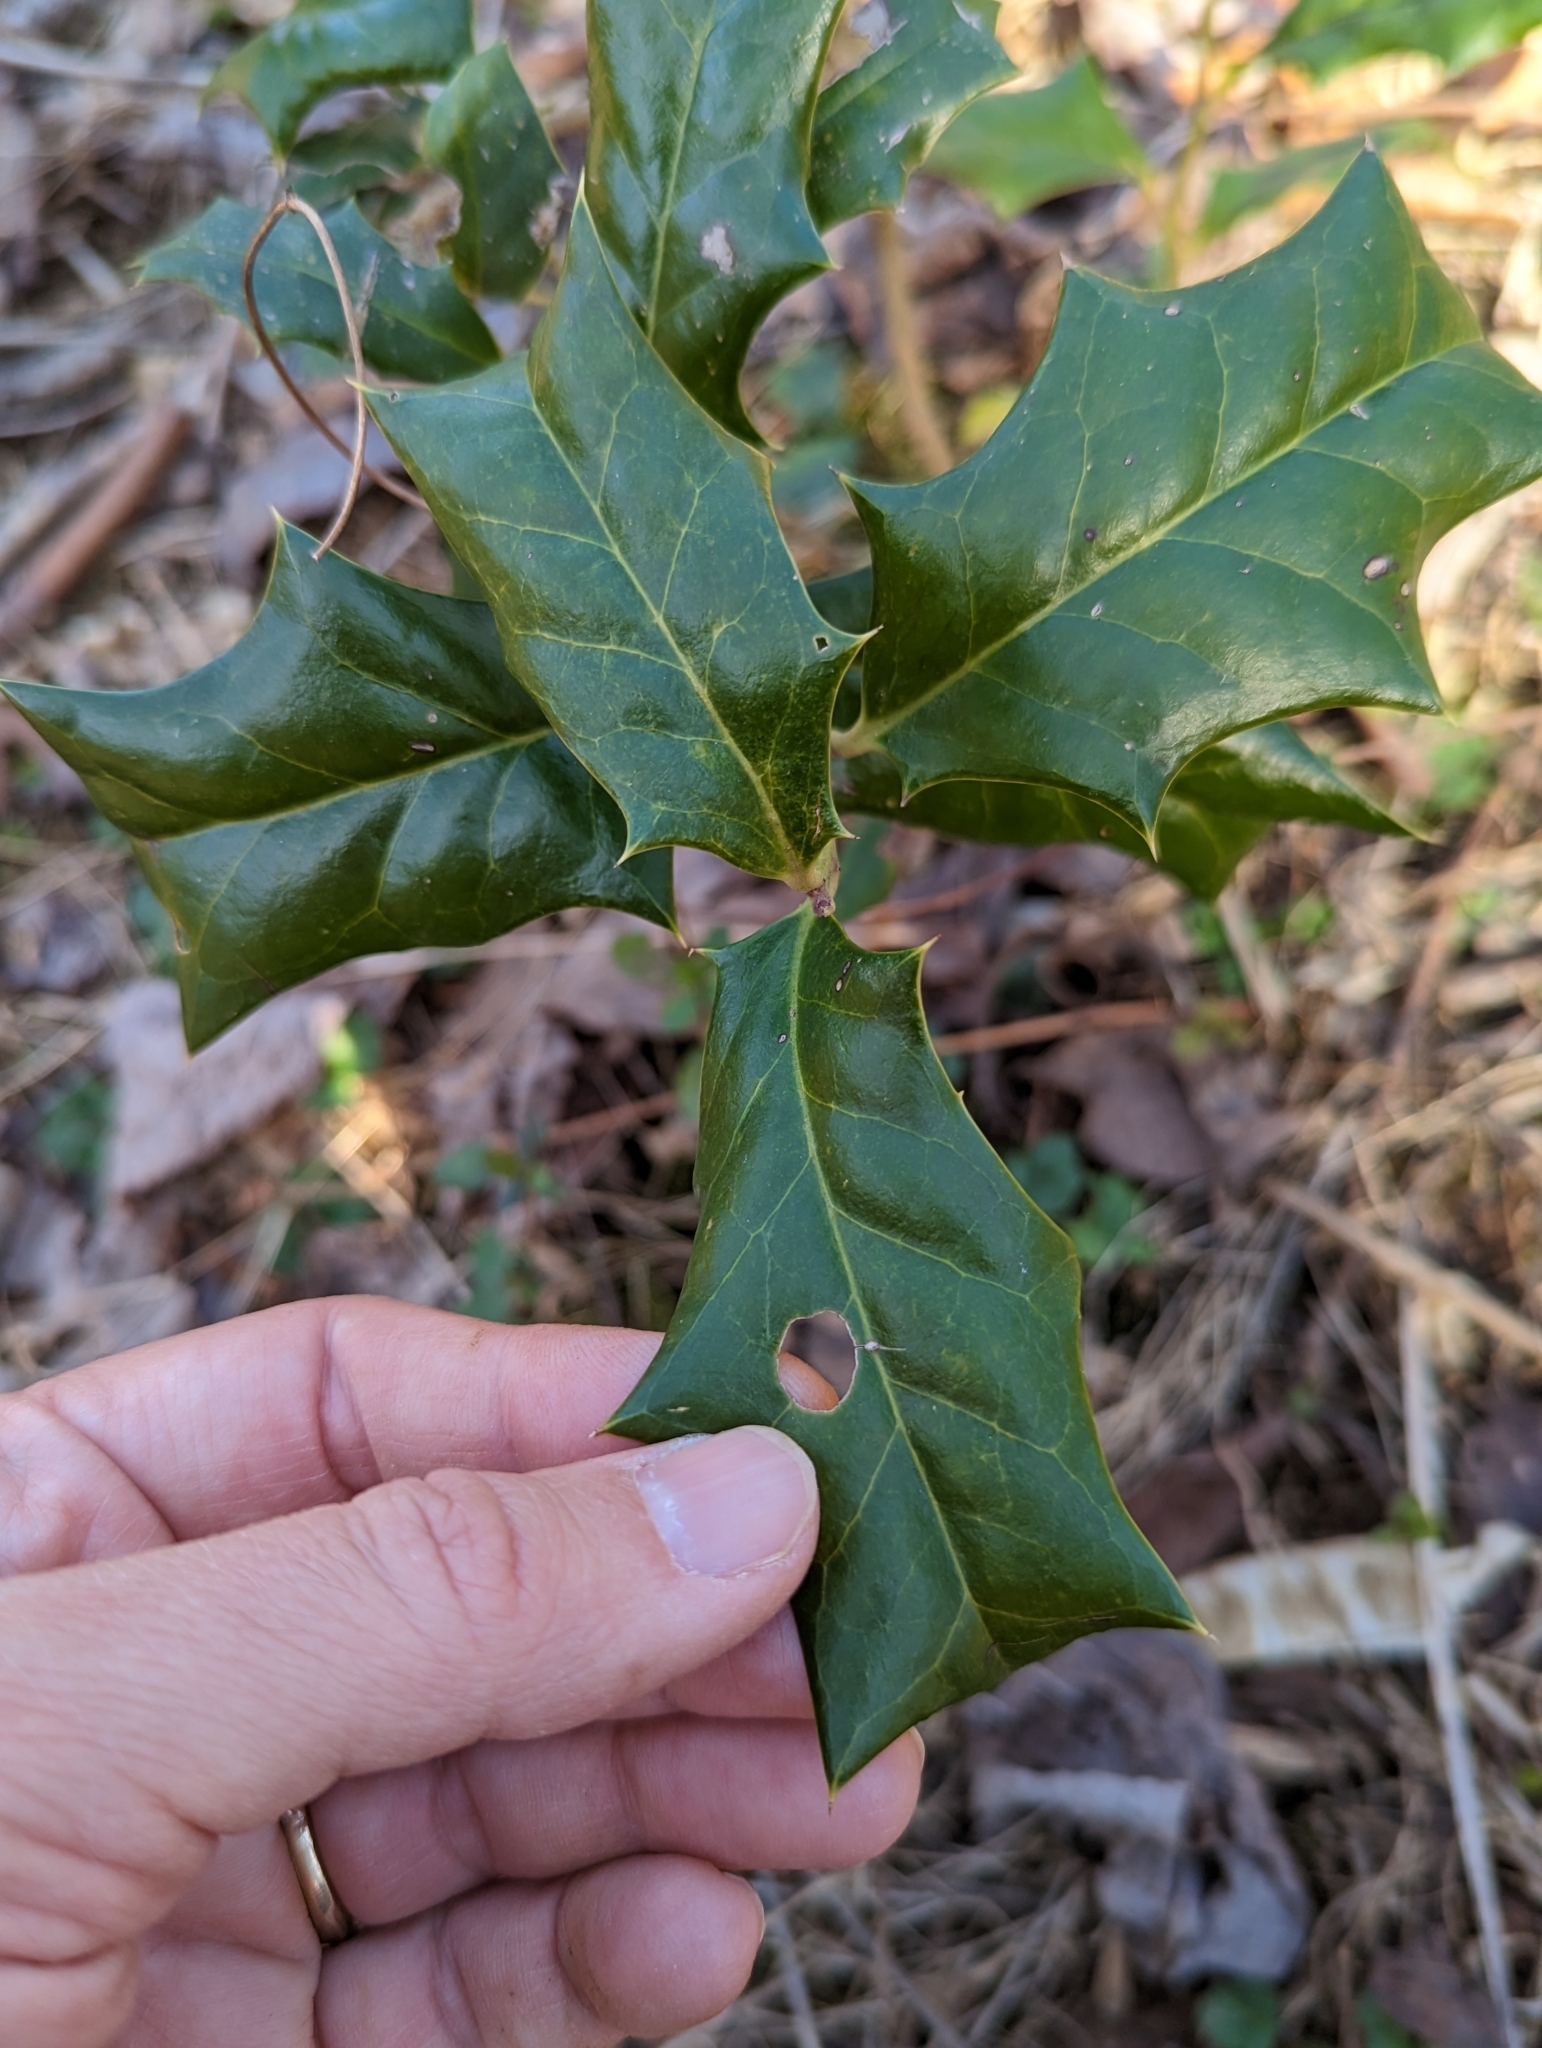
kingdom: Plantae
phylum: Tracheophyta
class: Magnoliopsida
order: Aquifoliales
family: Aquifoliaceae
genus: Ilex
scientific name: Ilex cornuta
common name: Chinese holly
